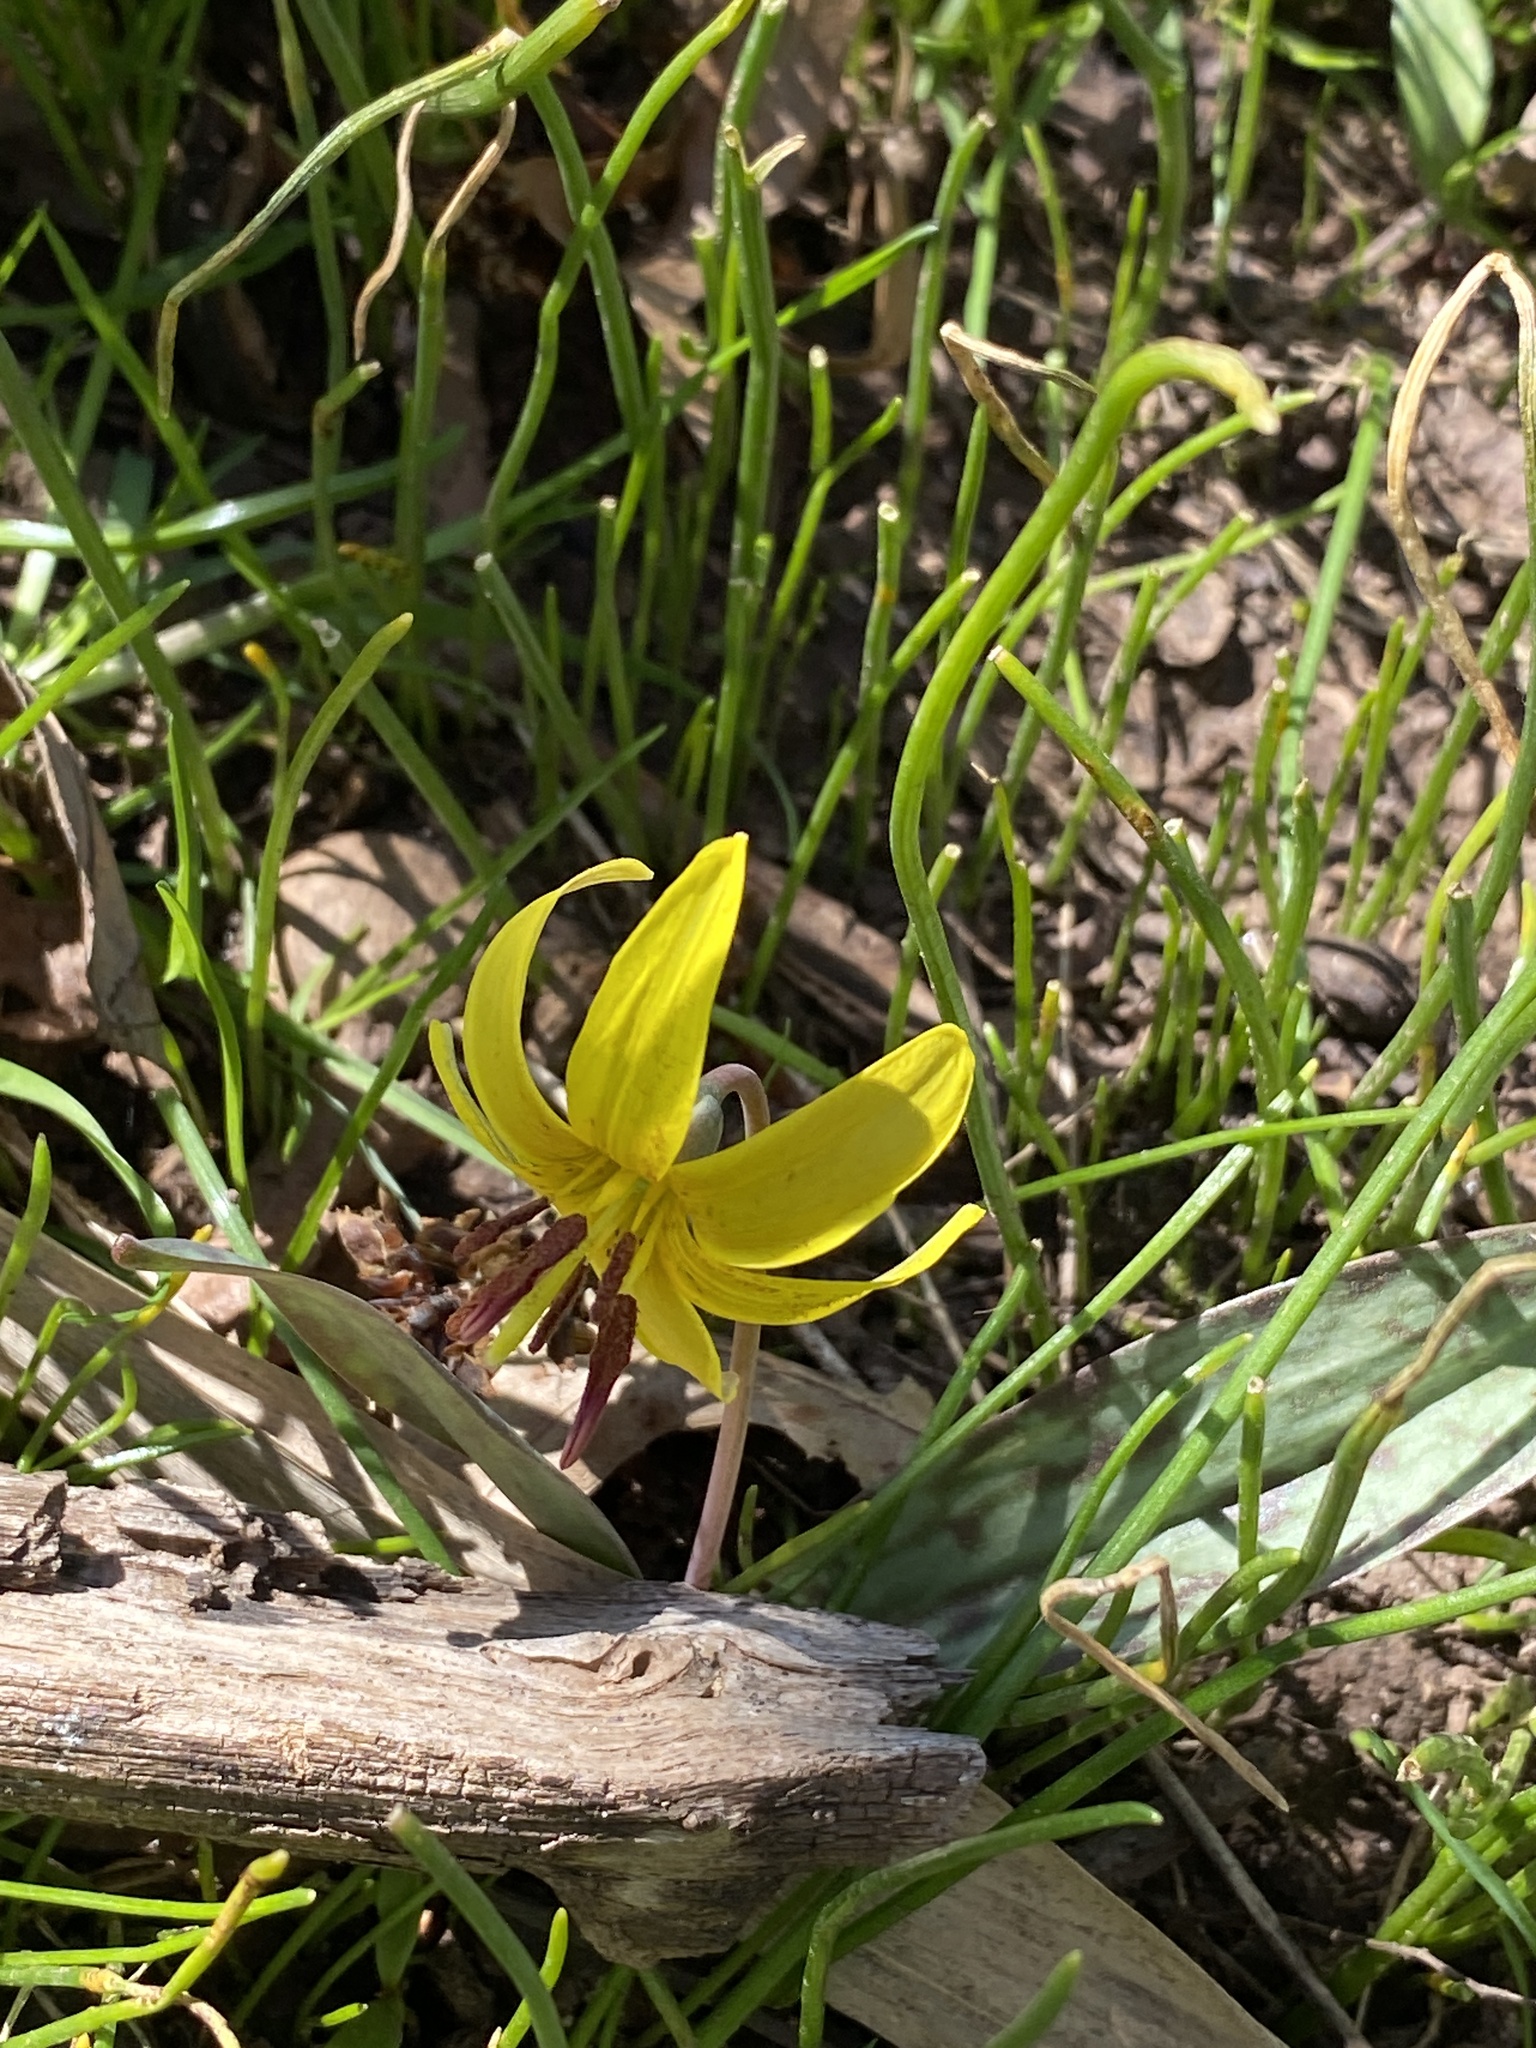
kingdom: Plantae
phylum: Tracheophyta
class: Liliopsida
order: Liliales
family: Liliaceae
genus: Erythronium
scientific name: Erythronium americanum
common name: Yellow adder's-tongue
